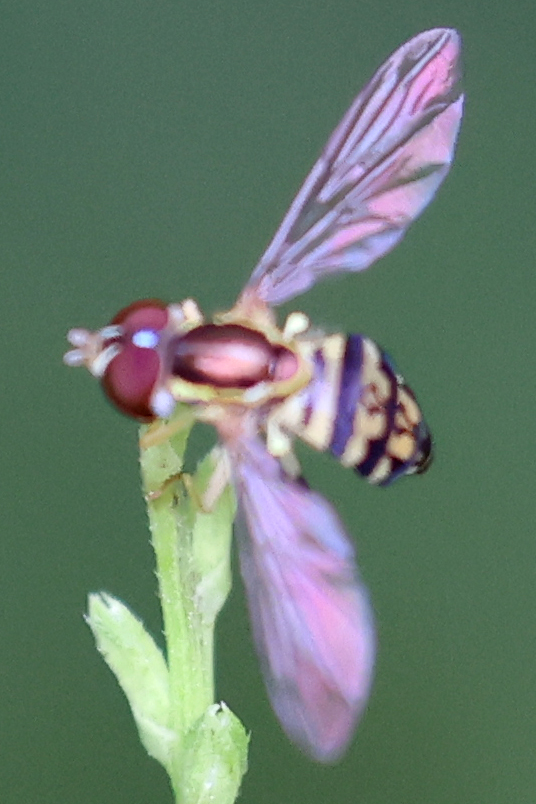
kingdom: Animalia
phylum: Arthropoda
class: Insecta
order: Diptera
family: Syrphidae
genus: Toxomerus
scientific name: Toxomerus geminatus
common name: Eastern calligrapher
